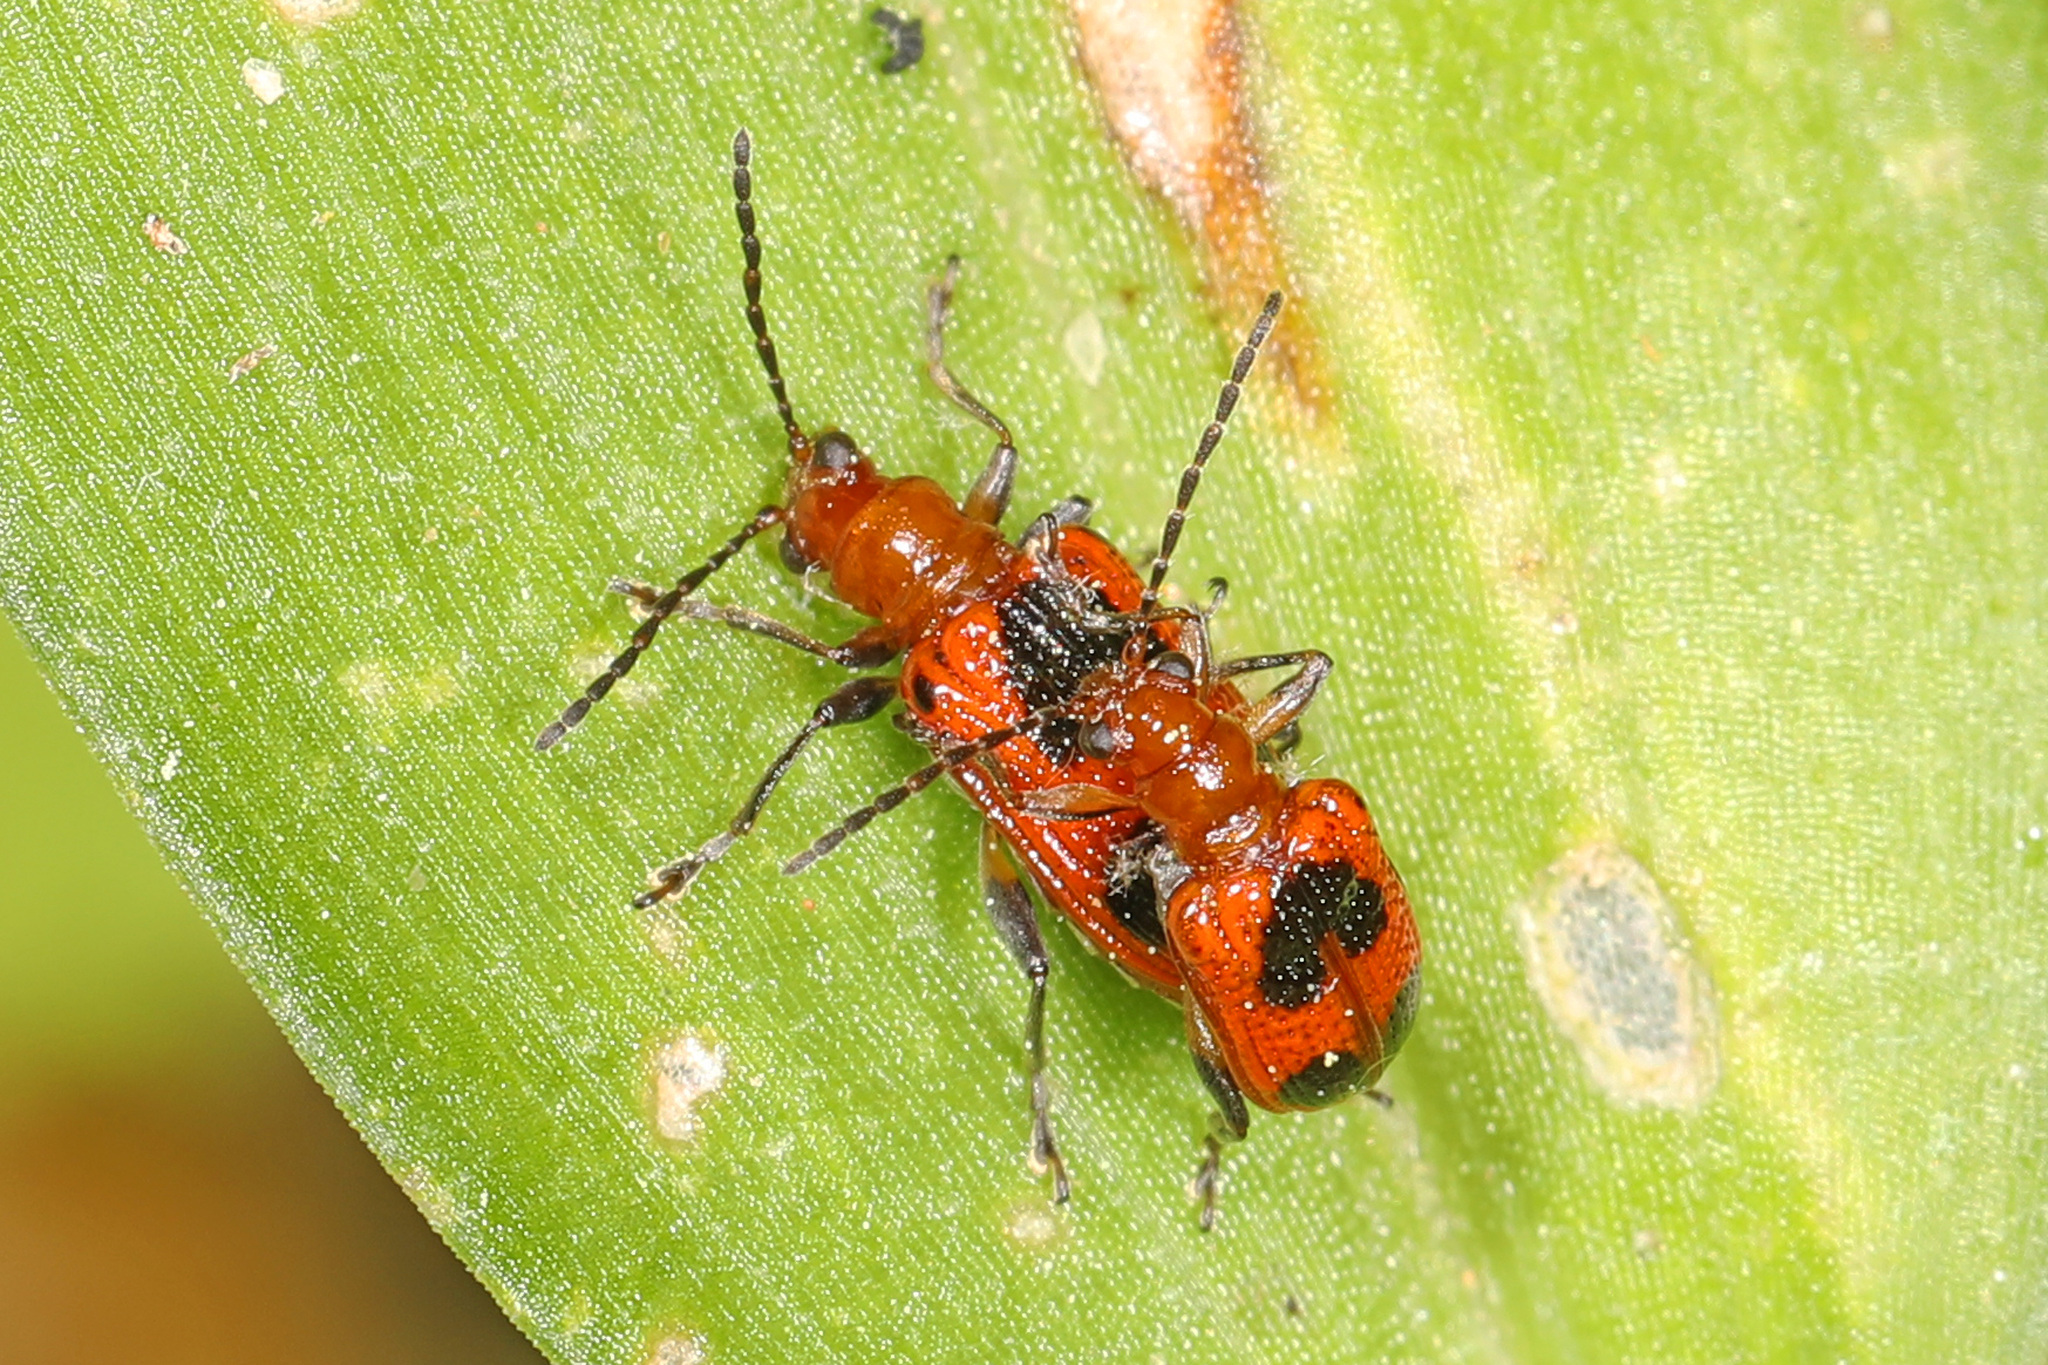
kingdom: Animalia
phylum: Arthropoda
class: Insecta
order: Coleoptera
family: Chrysomelidae
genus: Neolema
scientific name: Neolema cordata
